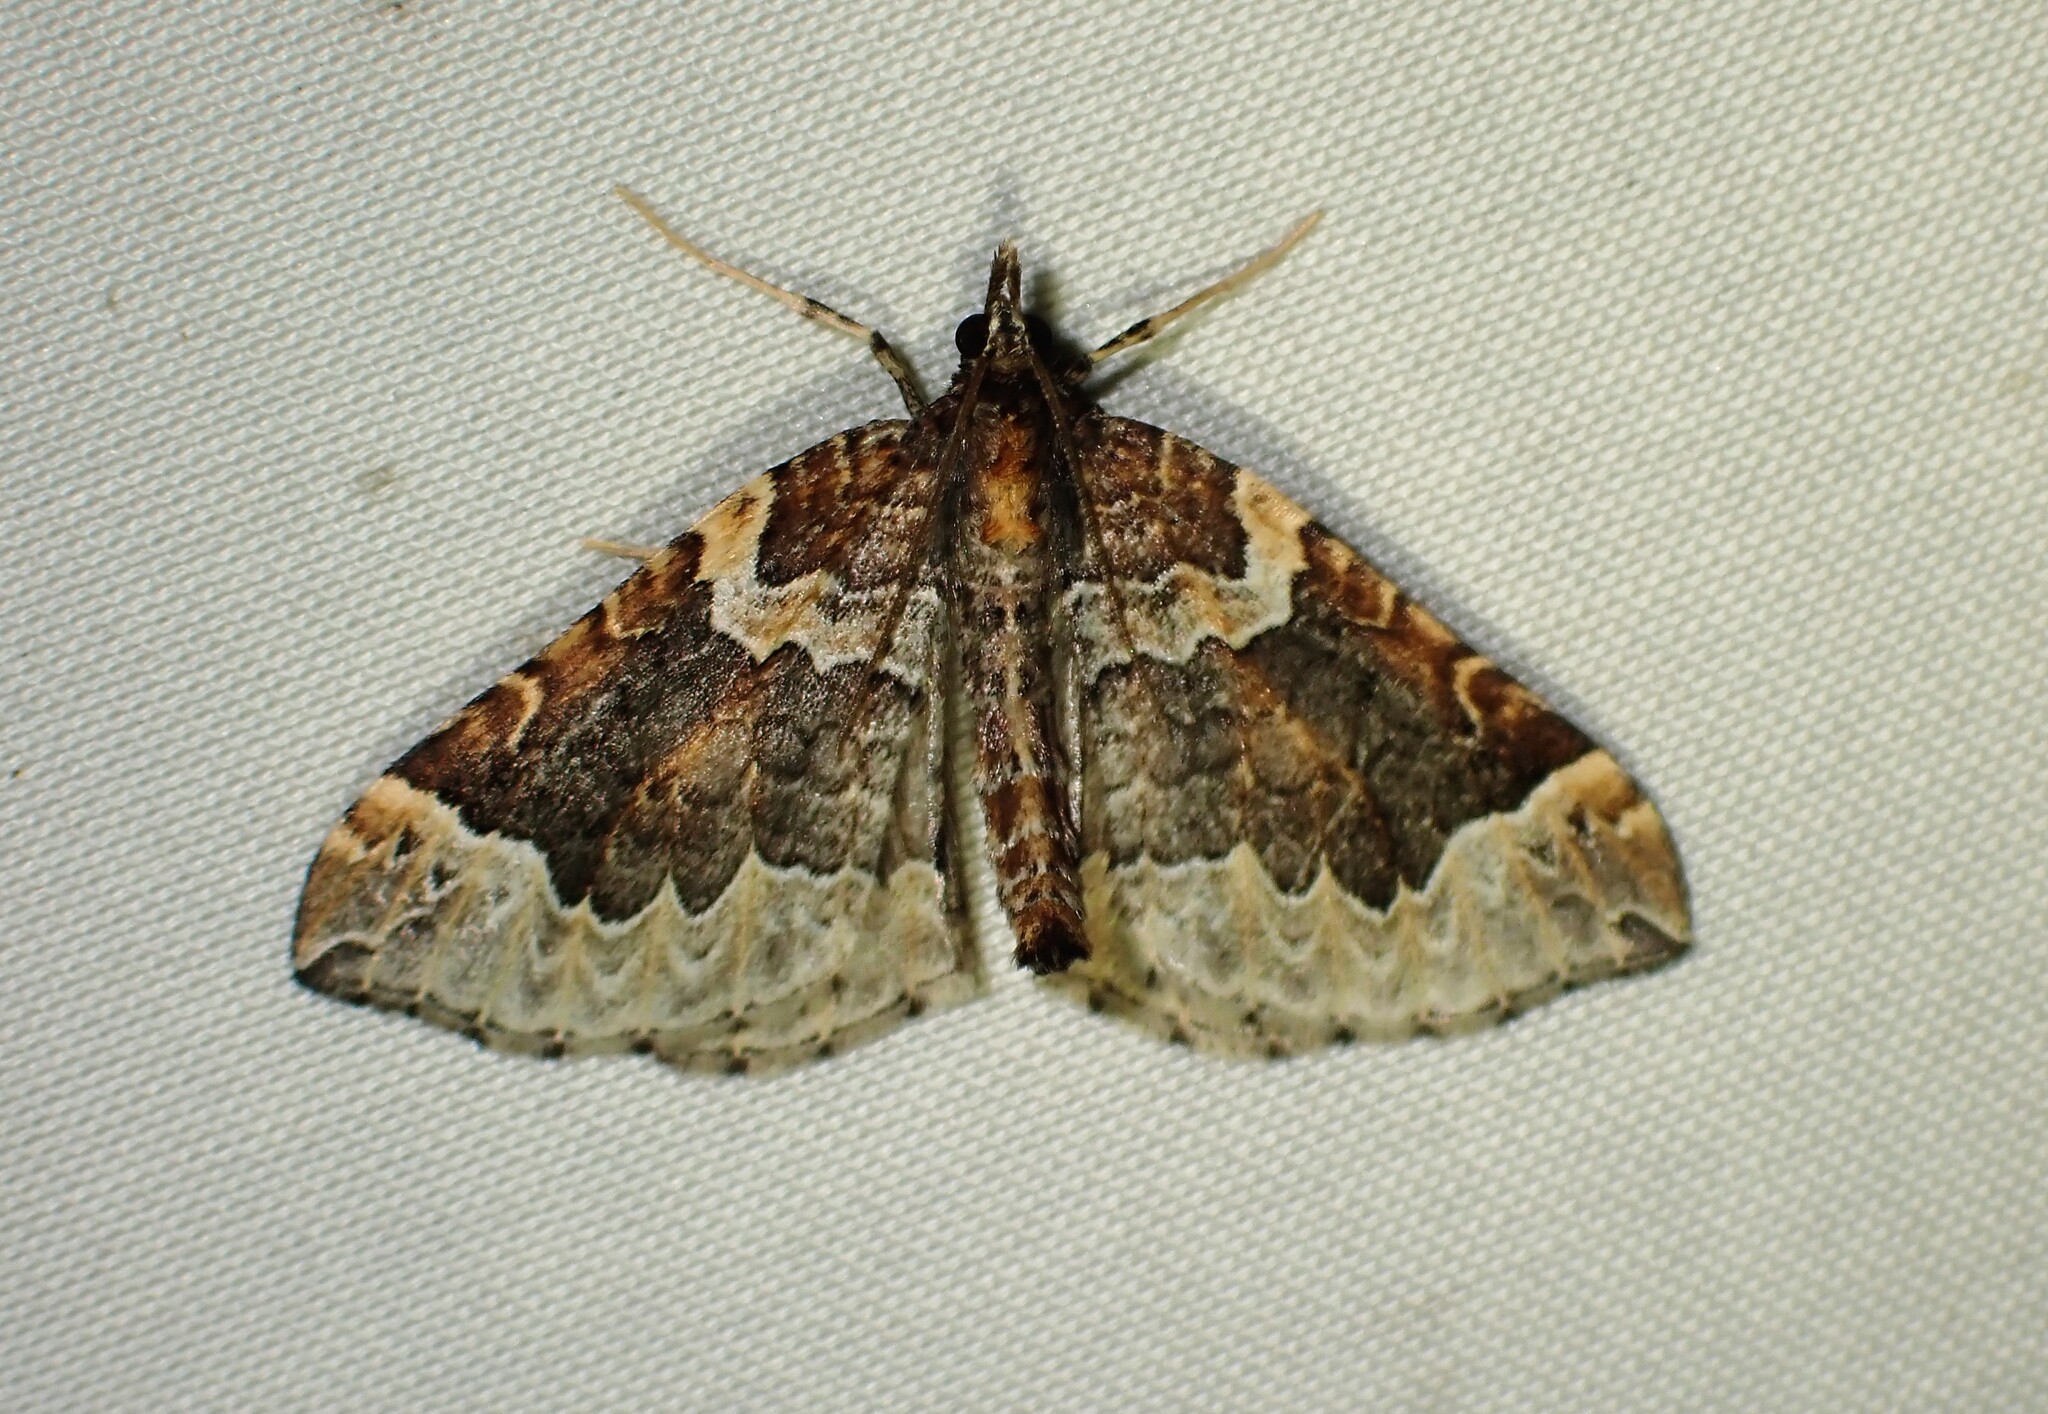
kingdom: Animalia
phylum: Arthropoda
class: Insecta
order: Lepidoptera
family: Geometridae
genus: Eulithis
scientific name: Eulithis flavibrunneata
